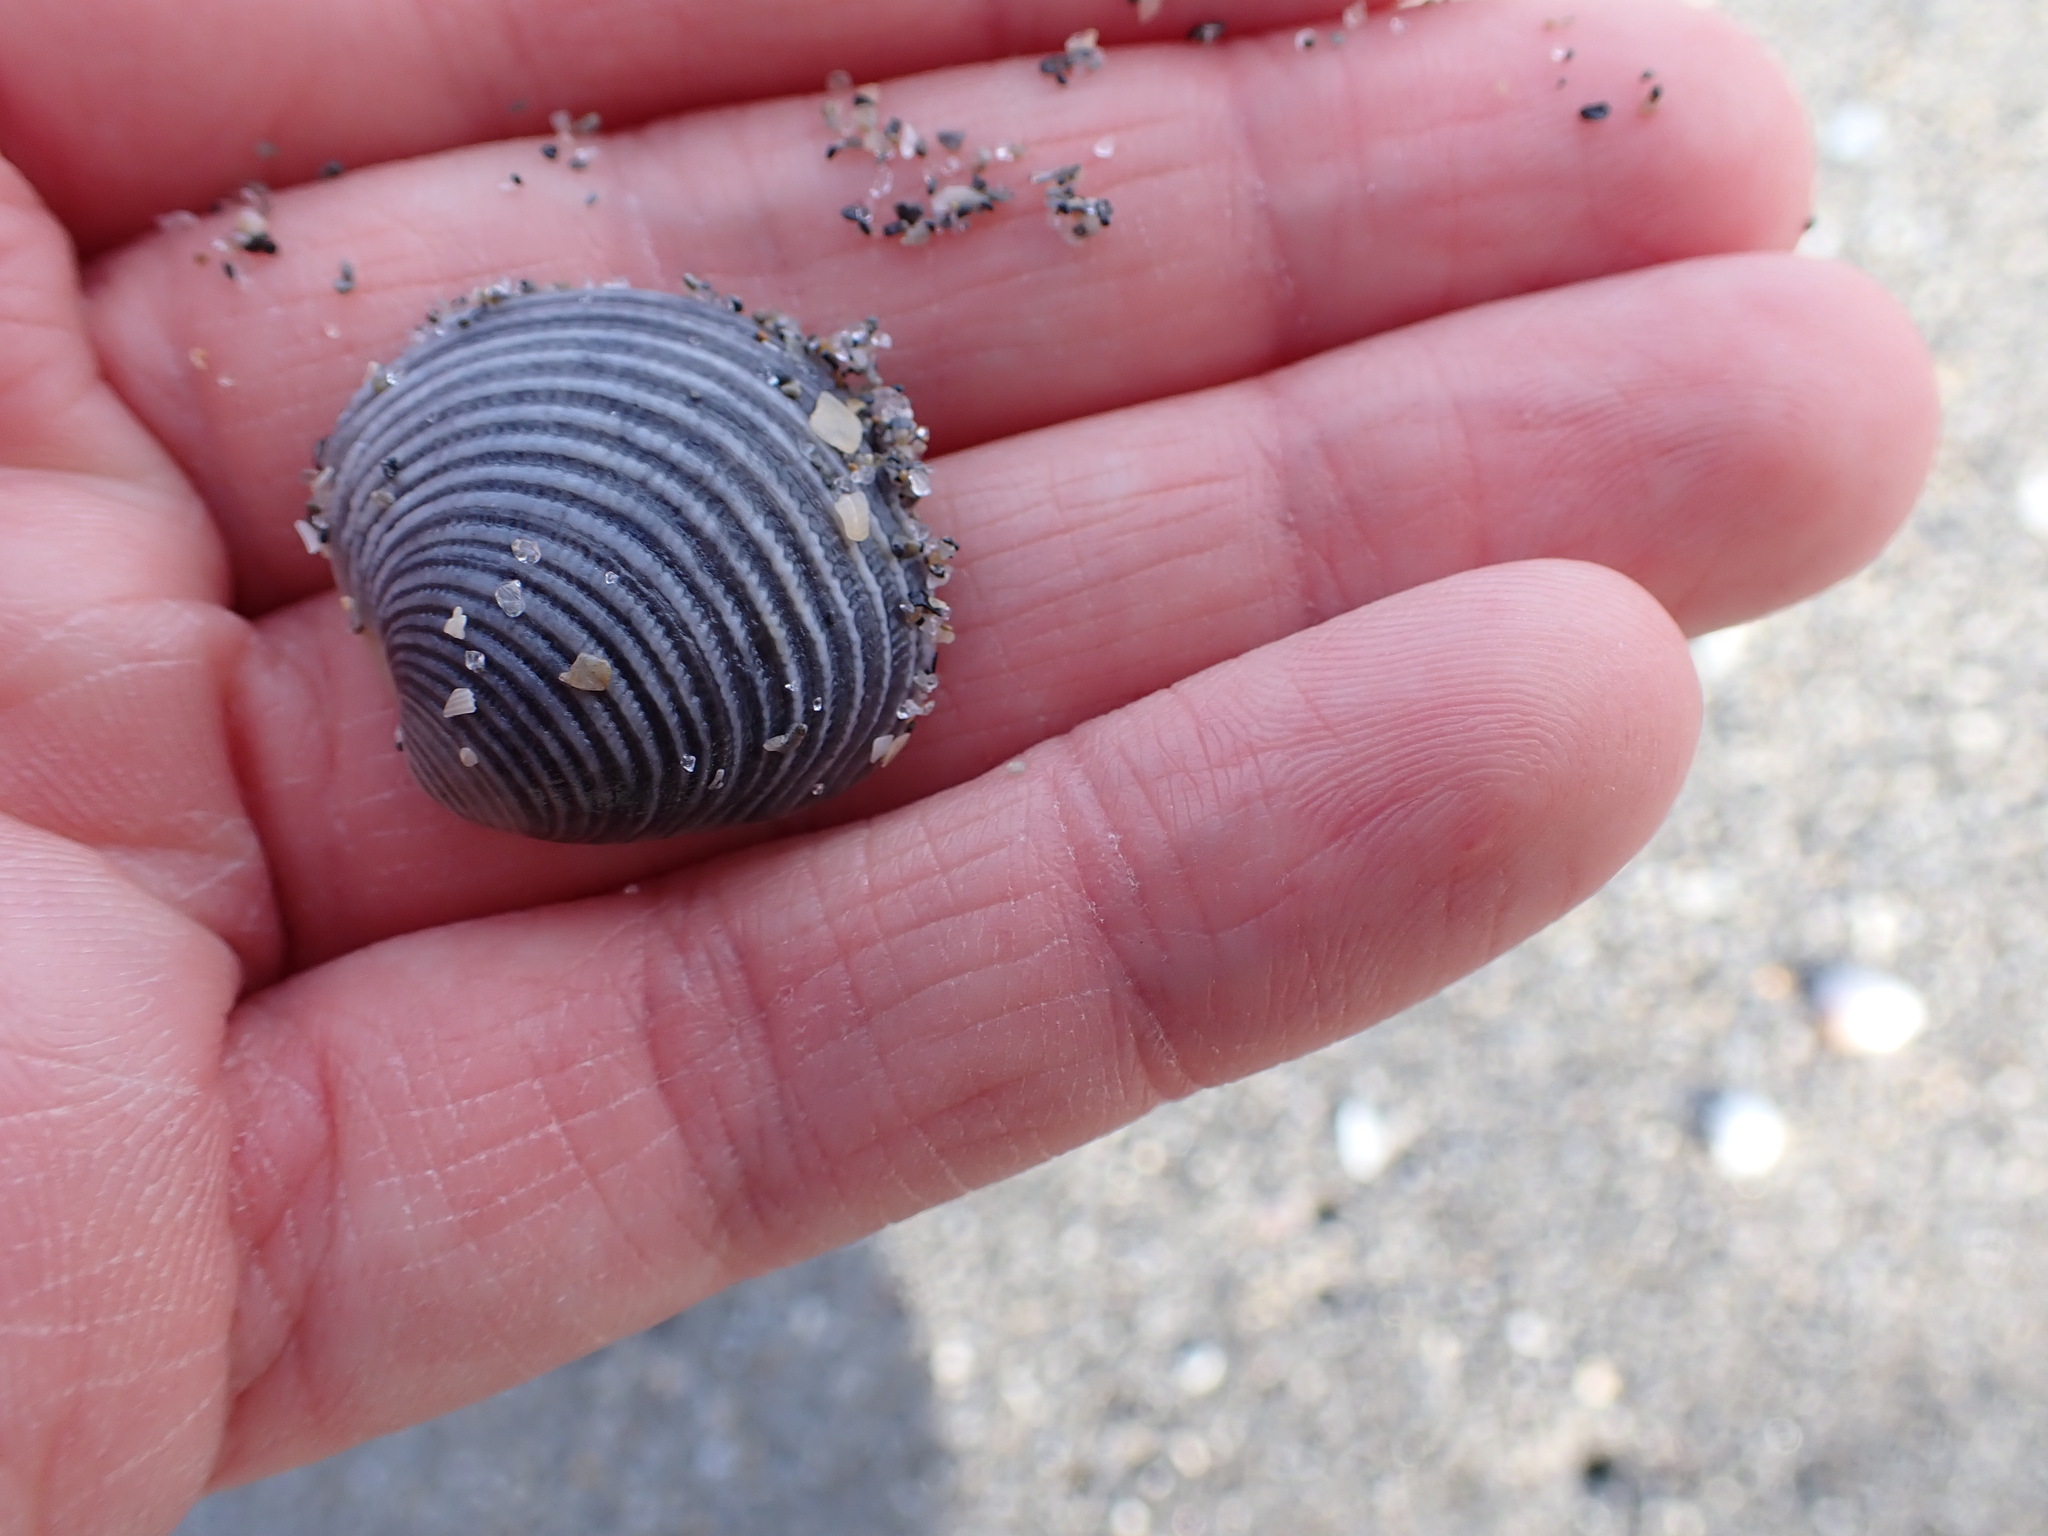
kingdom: Animalia
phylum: Mollusca
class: Bivalvia
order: Venerida
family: Veneridae
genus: Chionopsis
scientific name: Chionopsis intapurpurea
